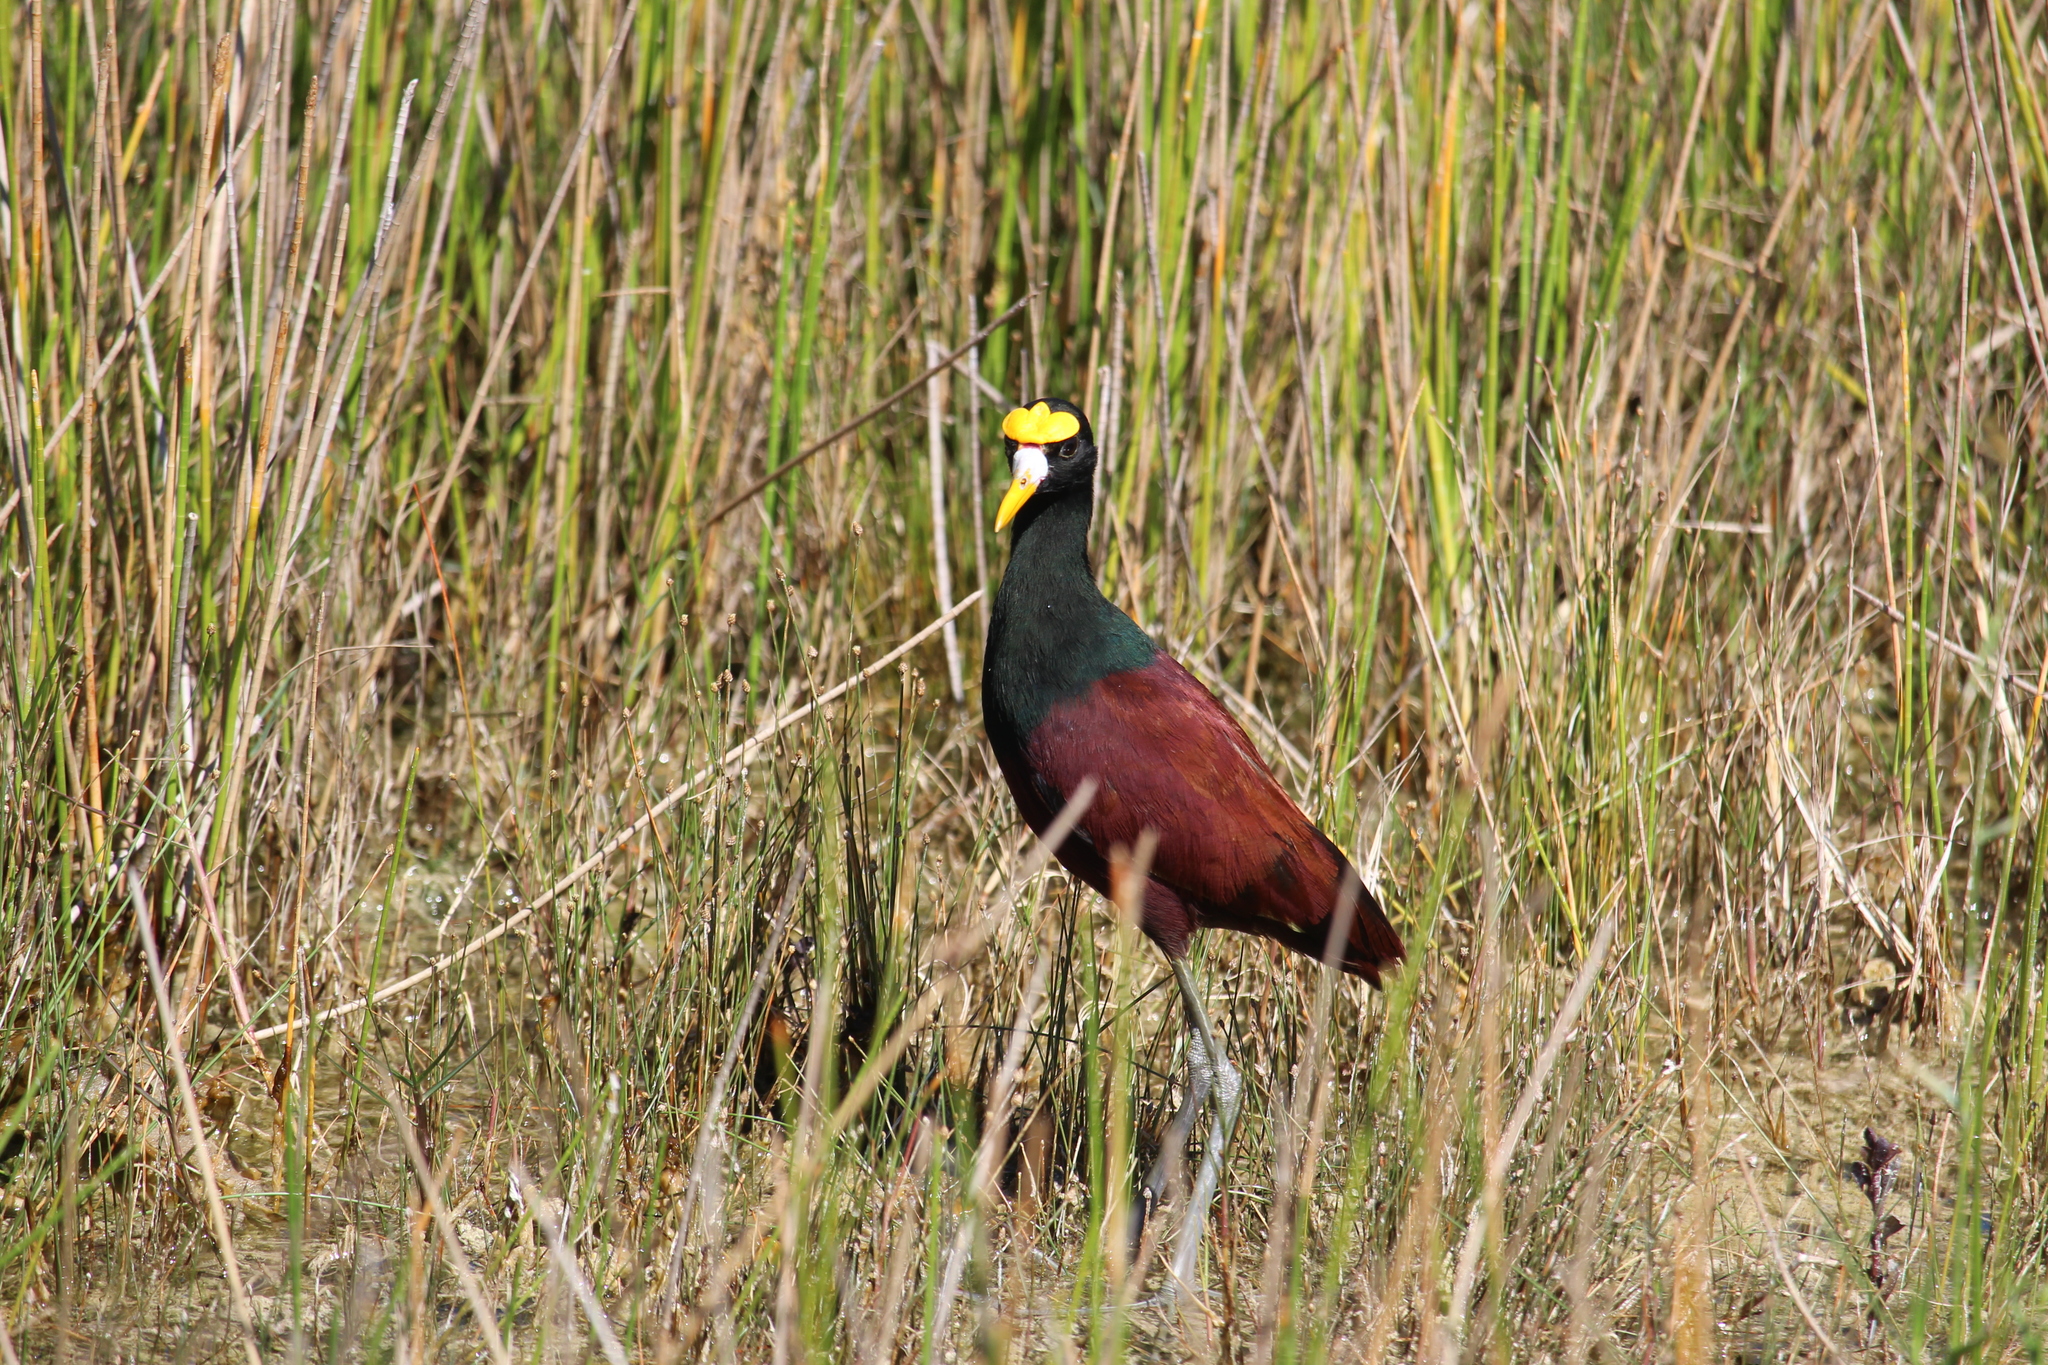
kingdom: Animalia
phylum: Chordata
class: Aves
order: Charadriiformes
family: Jacanidae
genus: Jacana
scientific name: Jacana spinosa
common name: Northern jacana
